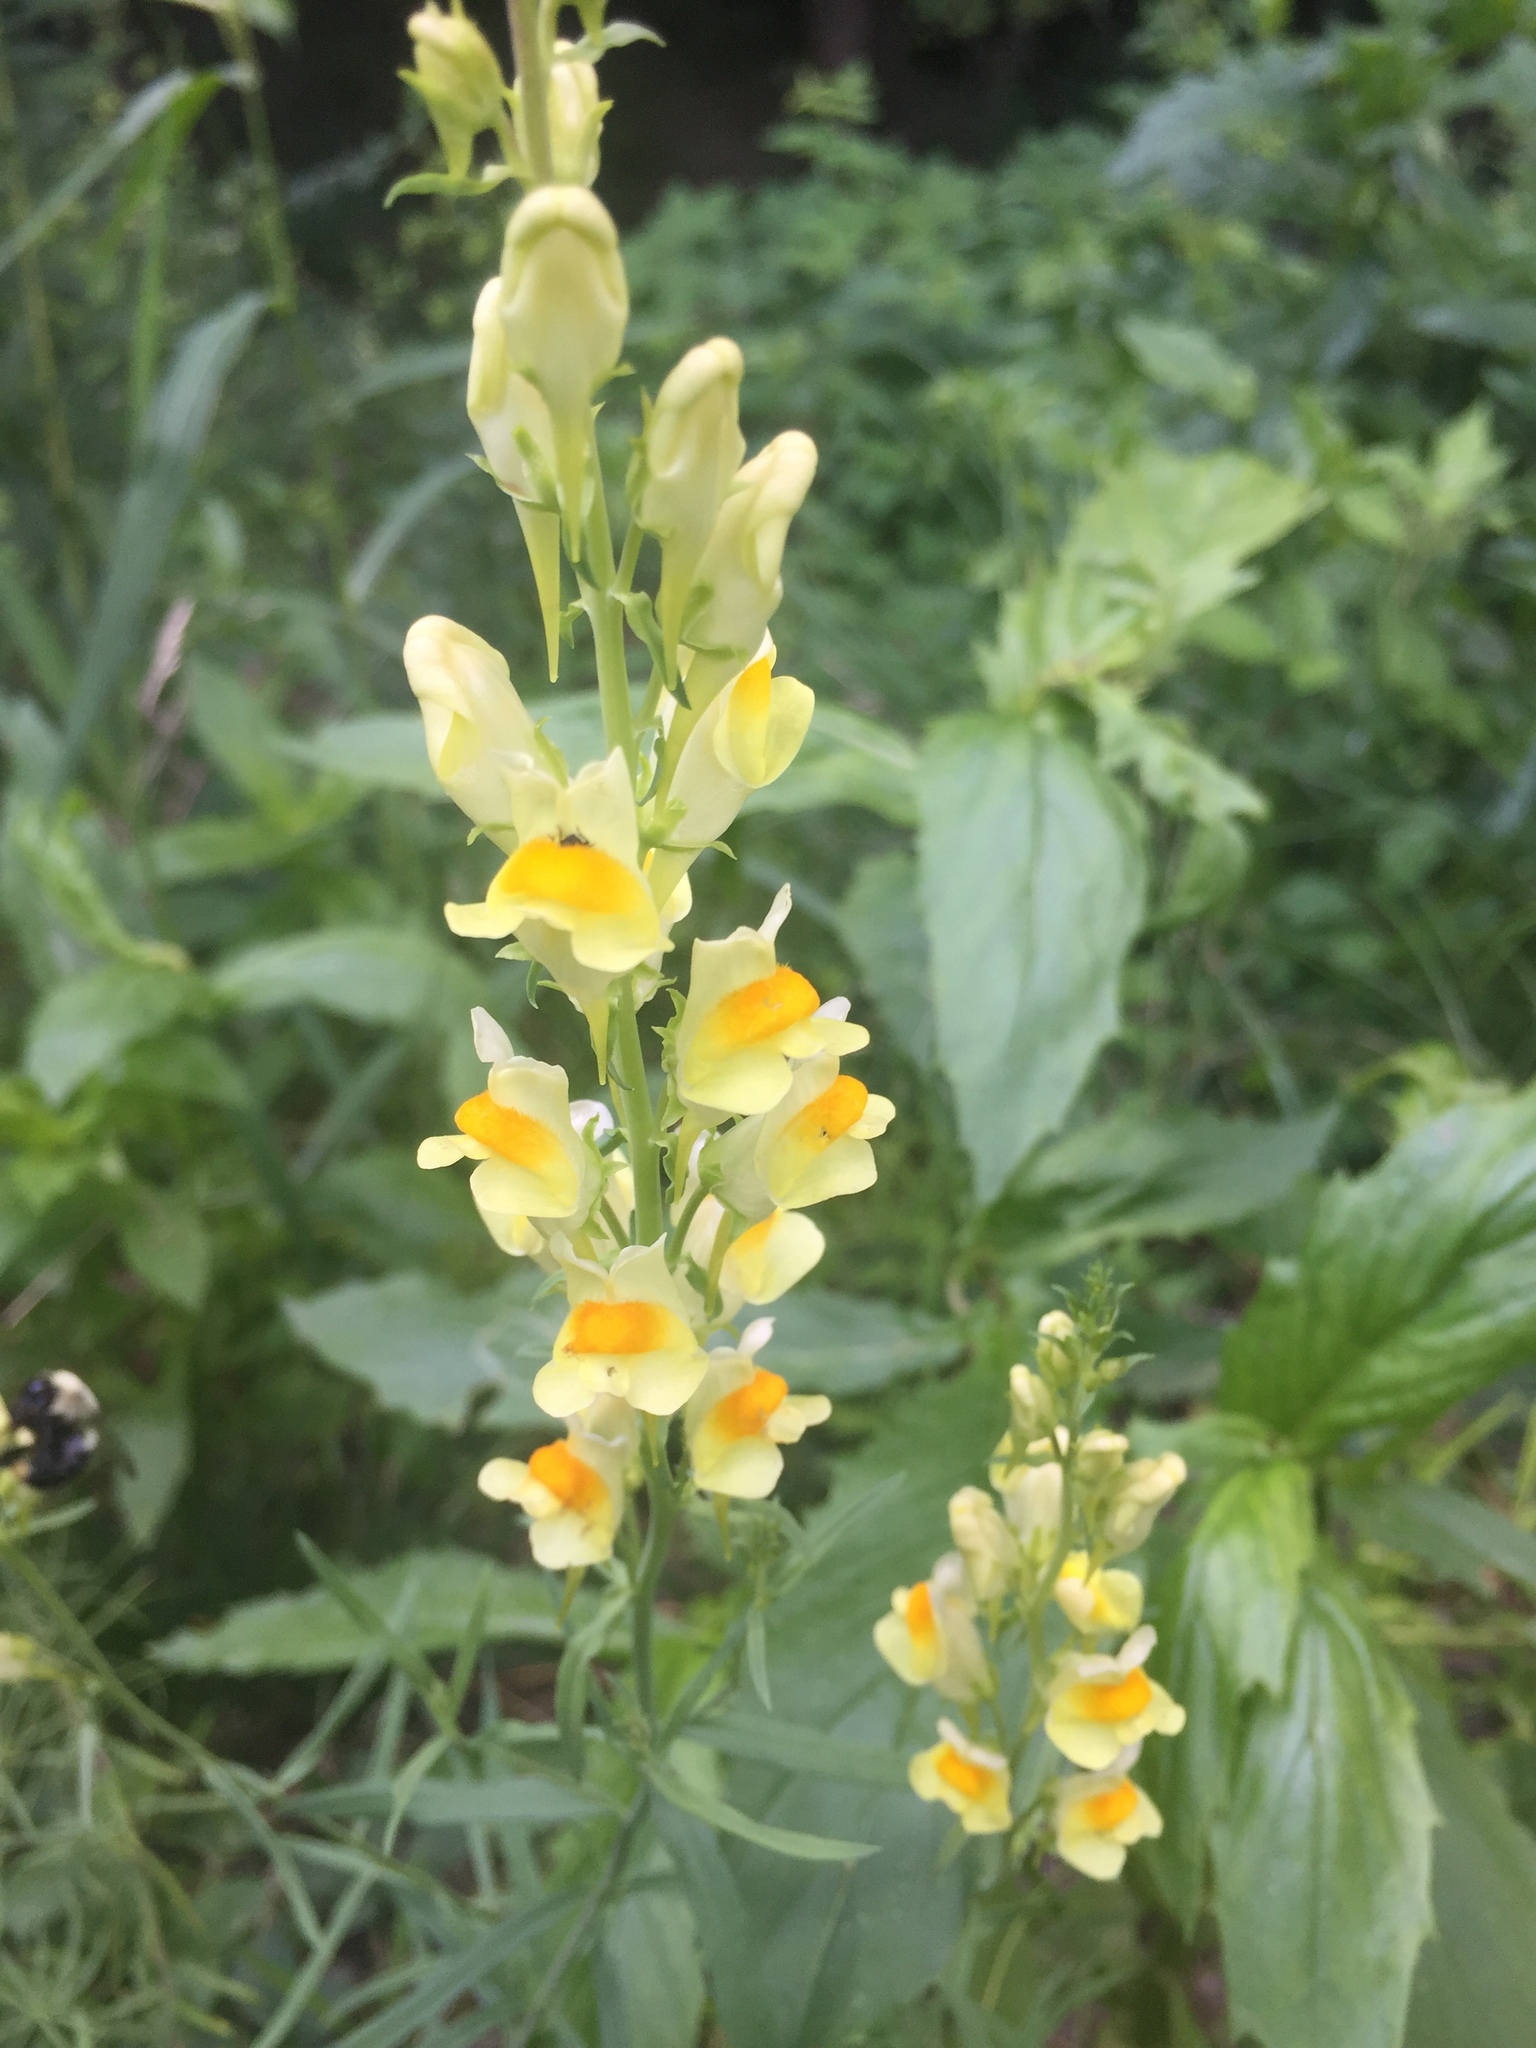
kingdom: Plantae
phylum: Tracheophyta
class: Magnoliopsida
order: Lamiales
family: Plantaginaceae
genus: Linaria
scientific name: Linaria vulgaris
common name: Butter and eggs
